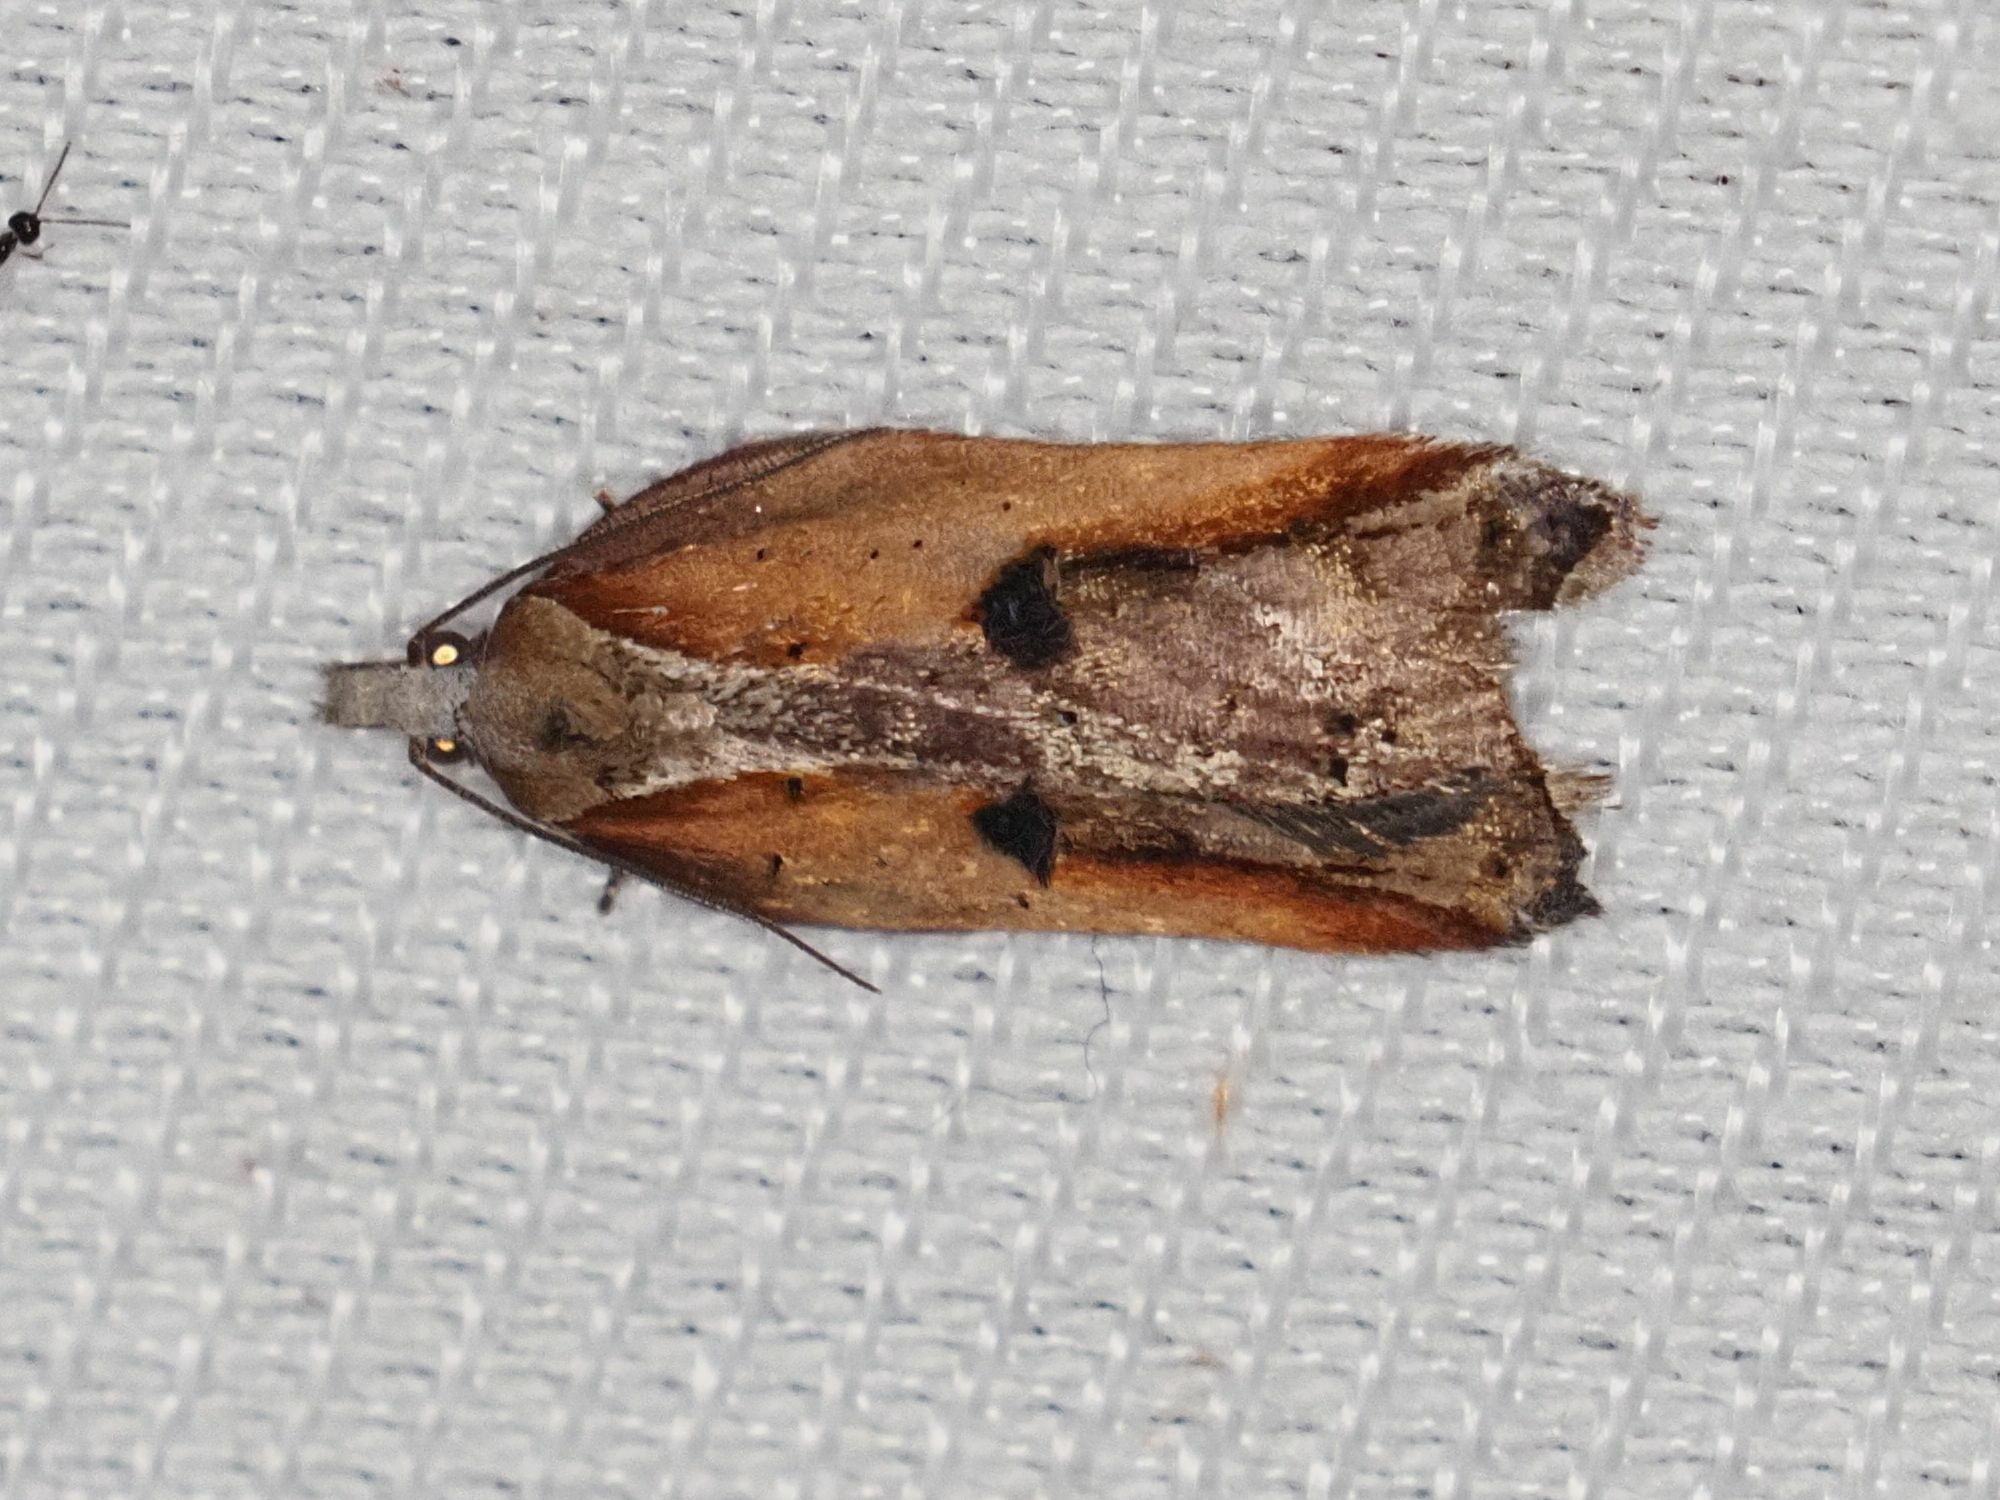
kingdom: Animalia
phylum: Arthropoda
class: Insecta
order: Lepidoptera
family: Tortricidae
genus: Acleris
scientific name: Acleris cristana
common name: Tufted button
